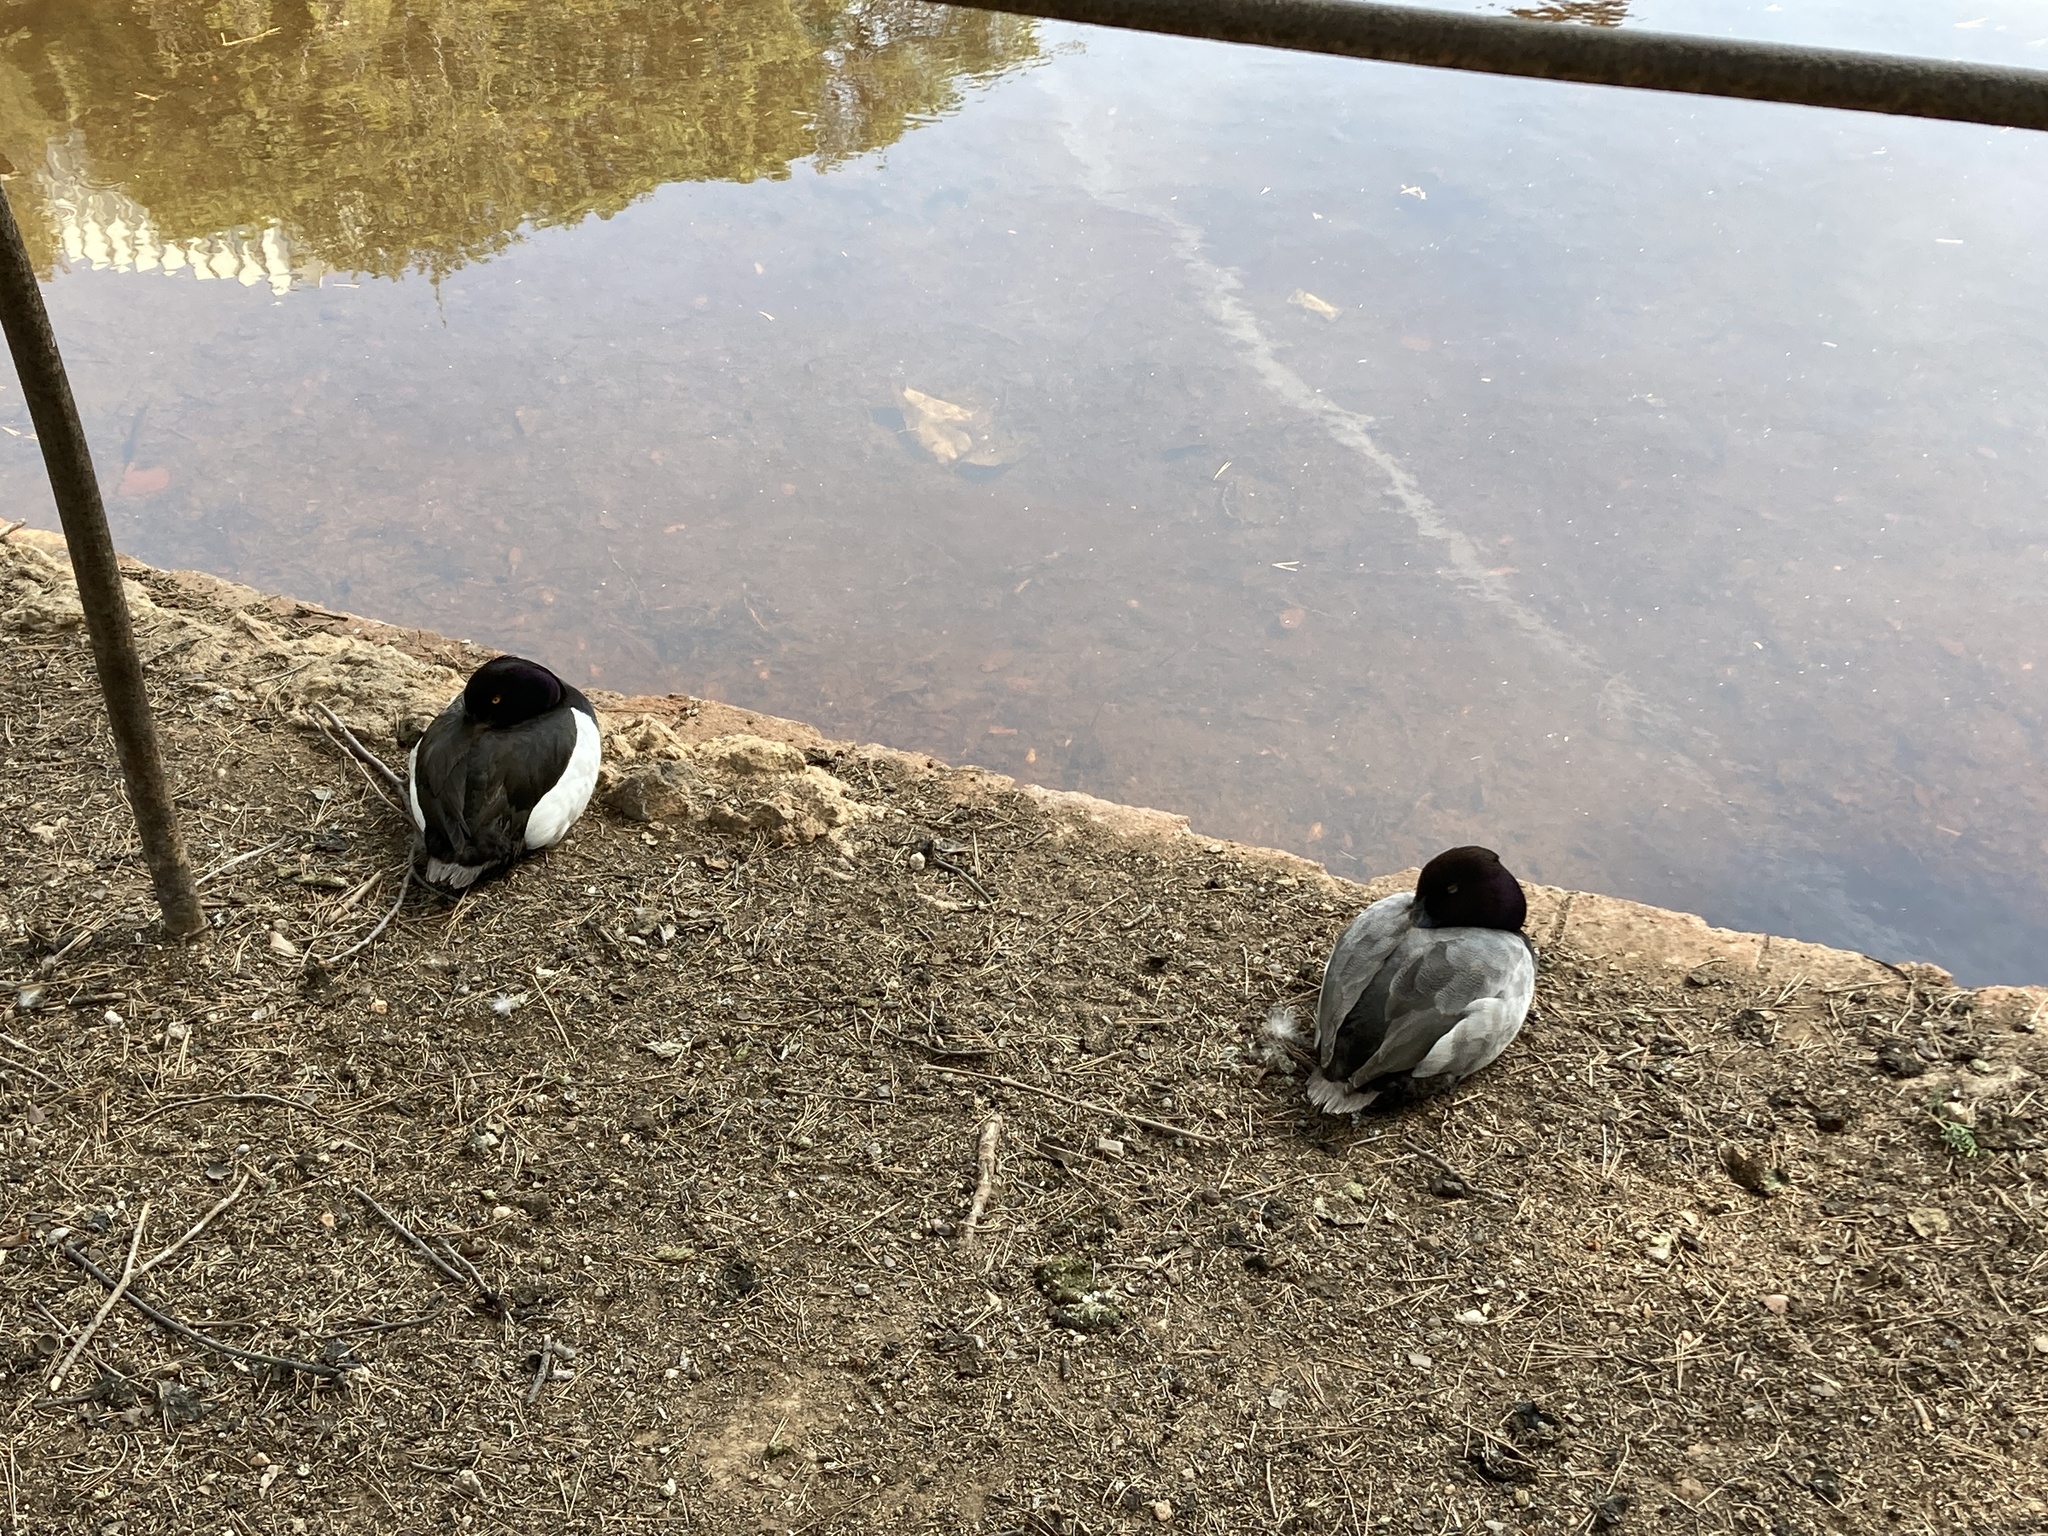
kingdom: Animalia
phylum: Chordata
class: Aves
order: Anseriformes
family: Anatidae
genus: Aythya
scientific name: Aythya fuligula
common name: Tufted duck
